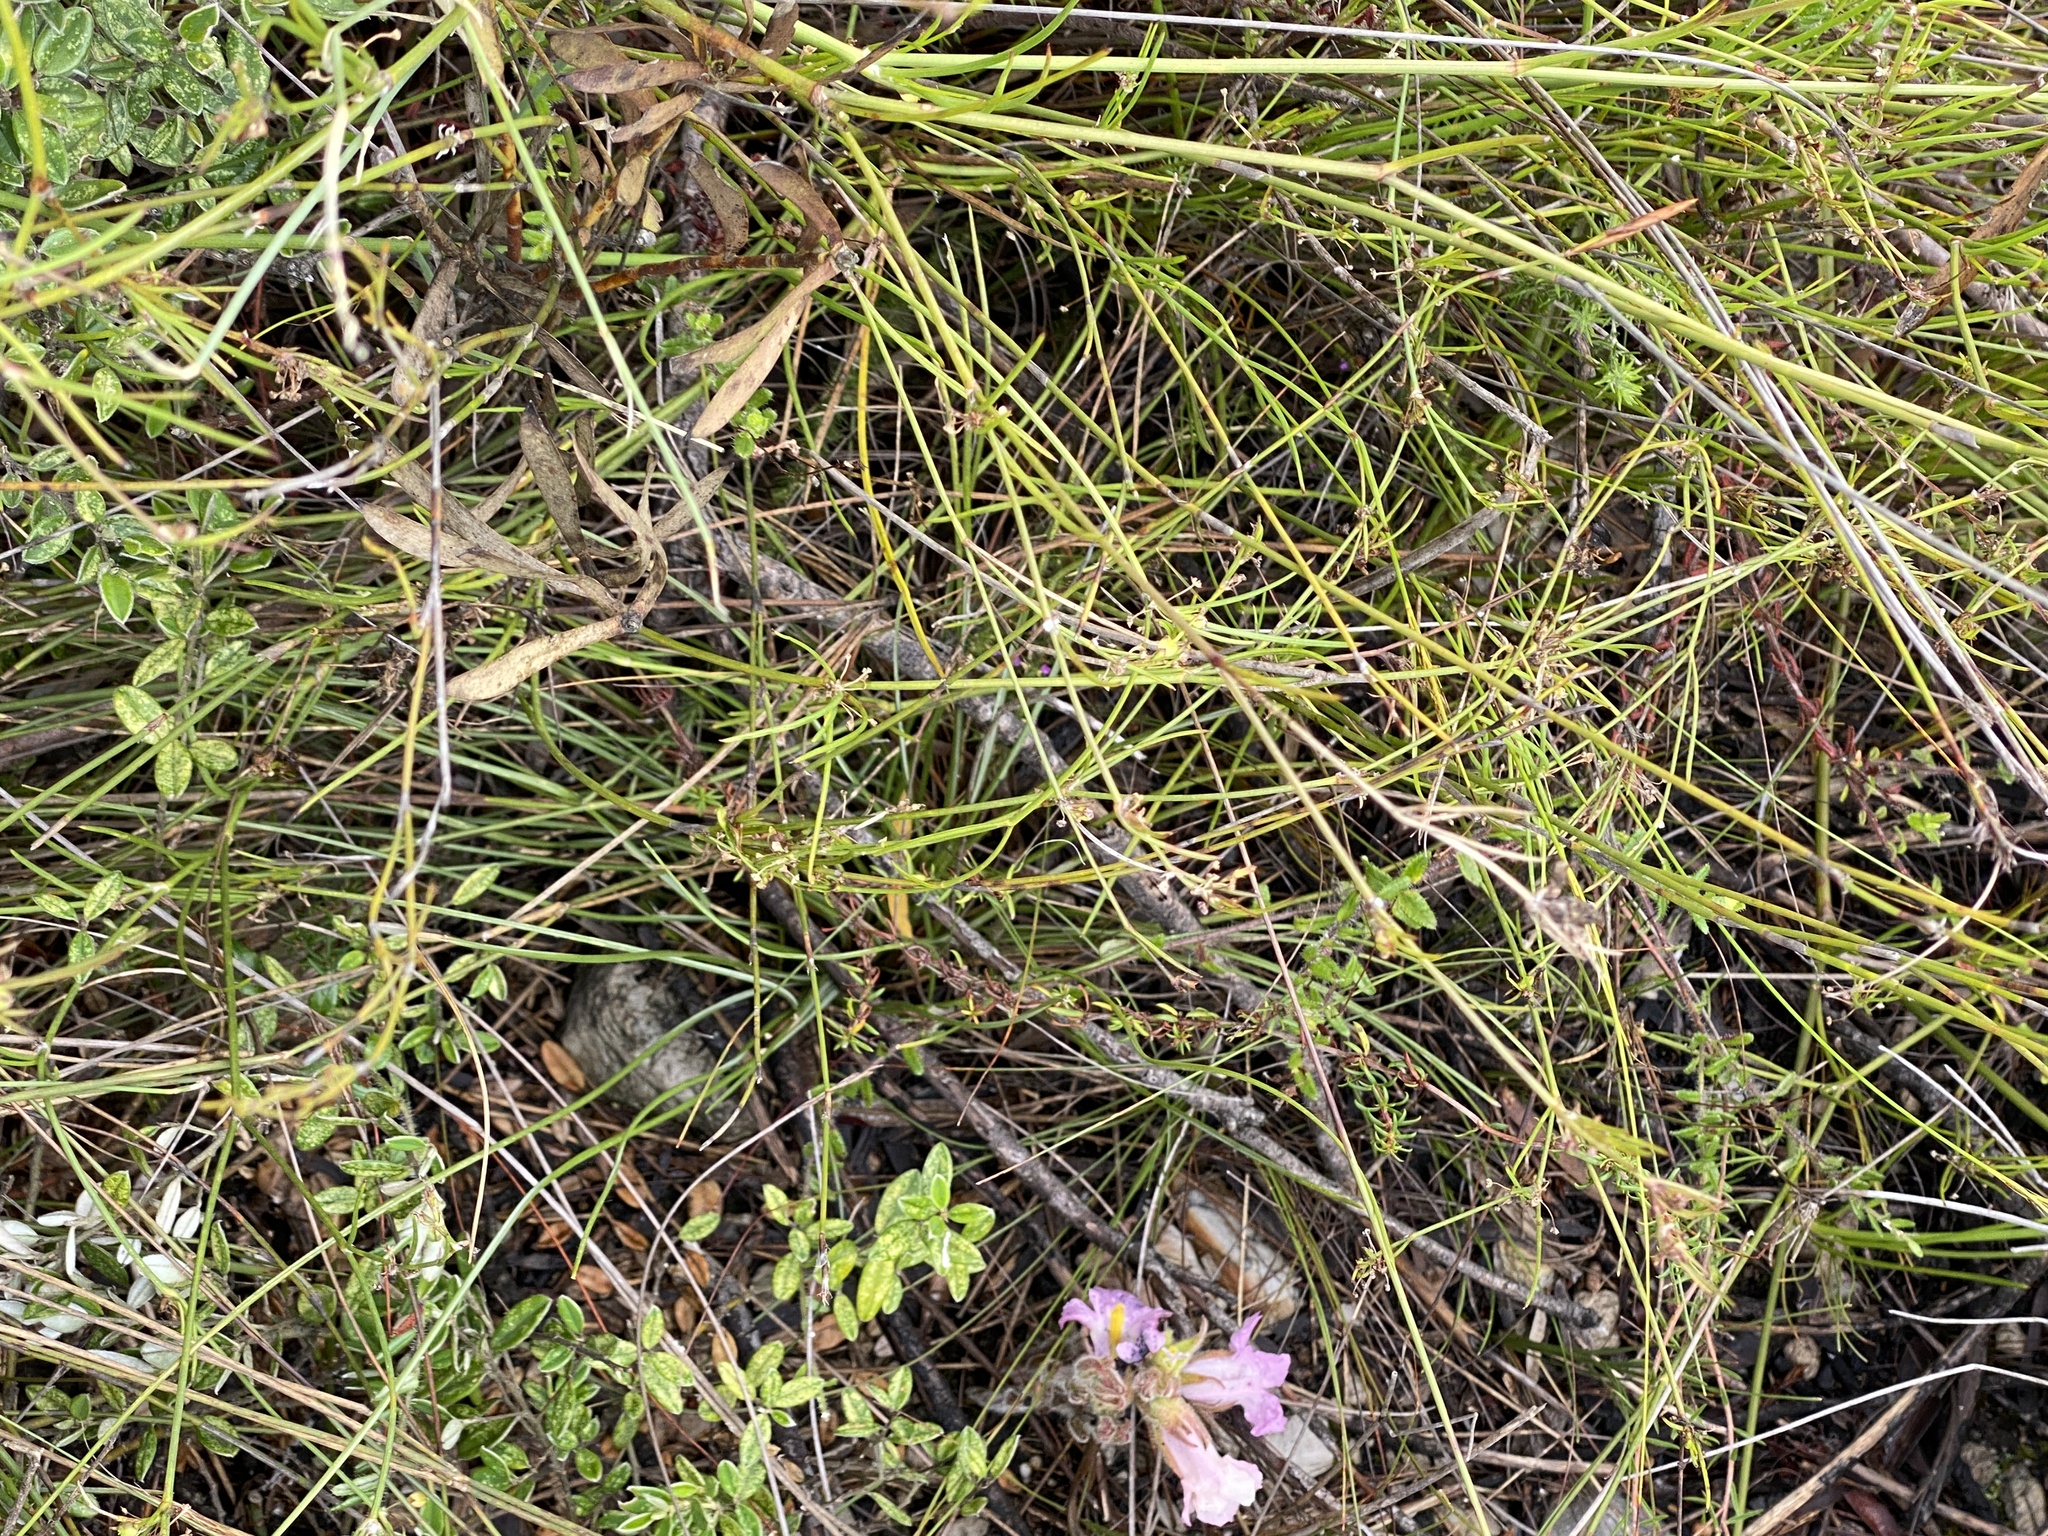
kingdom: Plantae
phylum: Tracheophyta
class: Magnoliopsida
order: Apiales
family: Apiaceae
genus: Centella
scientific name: Centella virgata
